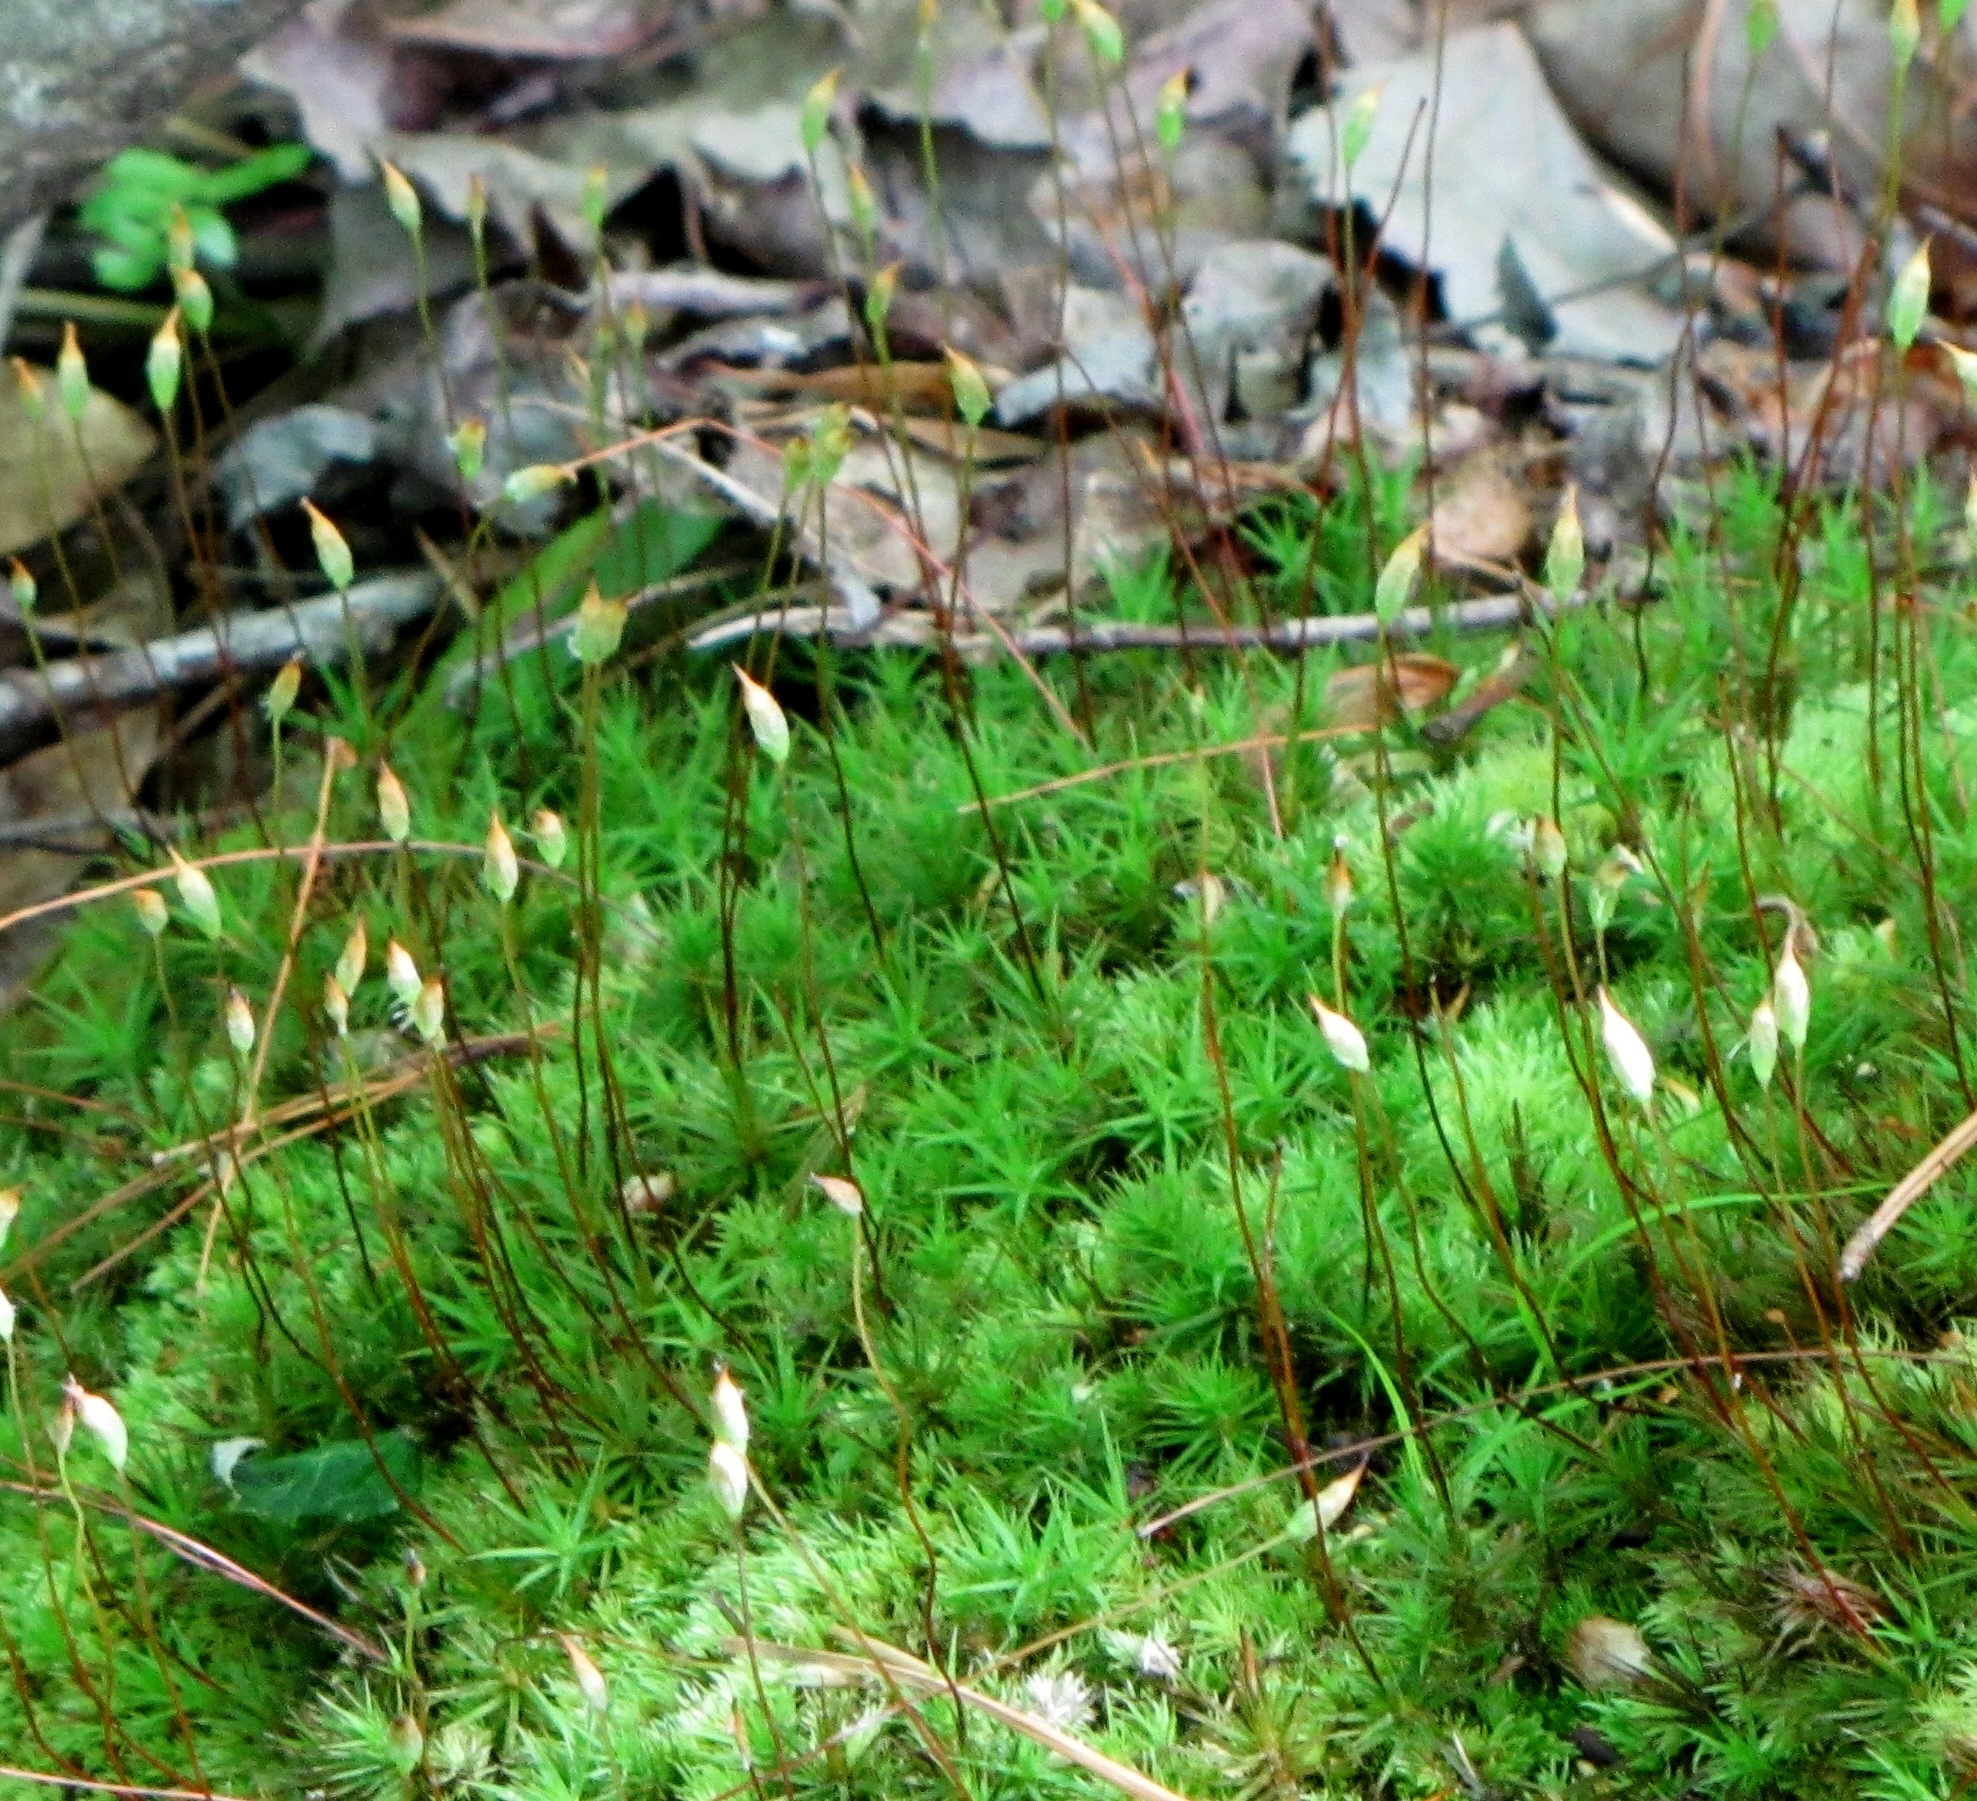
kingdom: Plantae
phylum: Bryophyta
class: Polytrichopsida
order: Polytrichales
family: Polytrichaceae
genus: Polytrichum
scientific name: Polytrichum ohioense
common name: Ohio polytrichum moss
